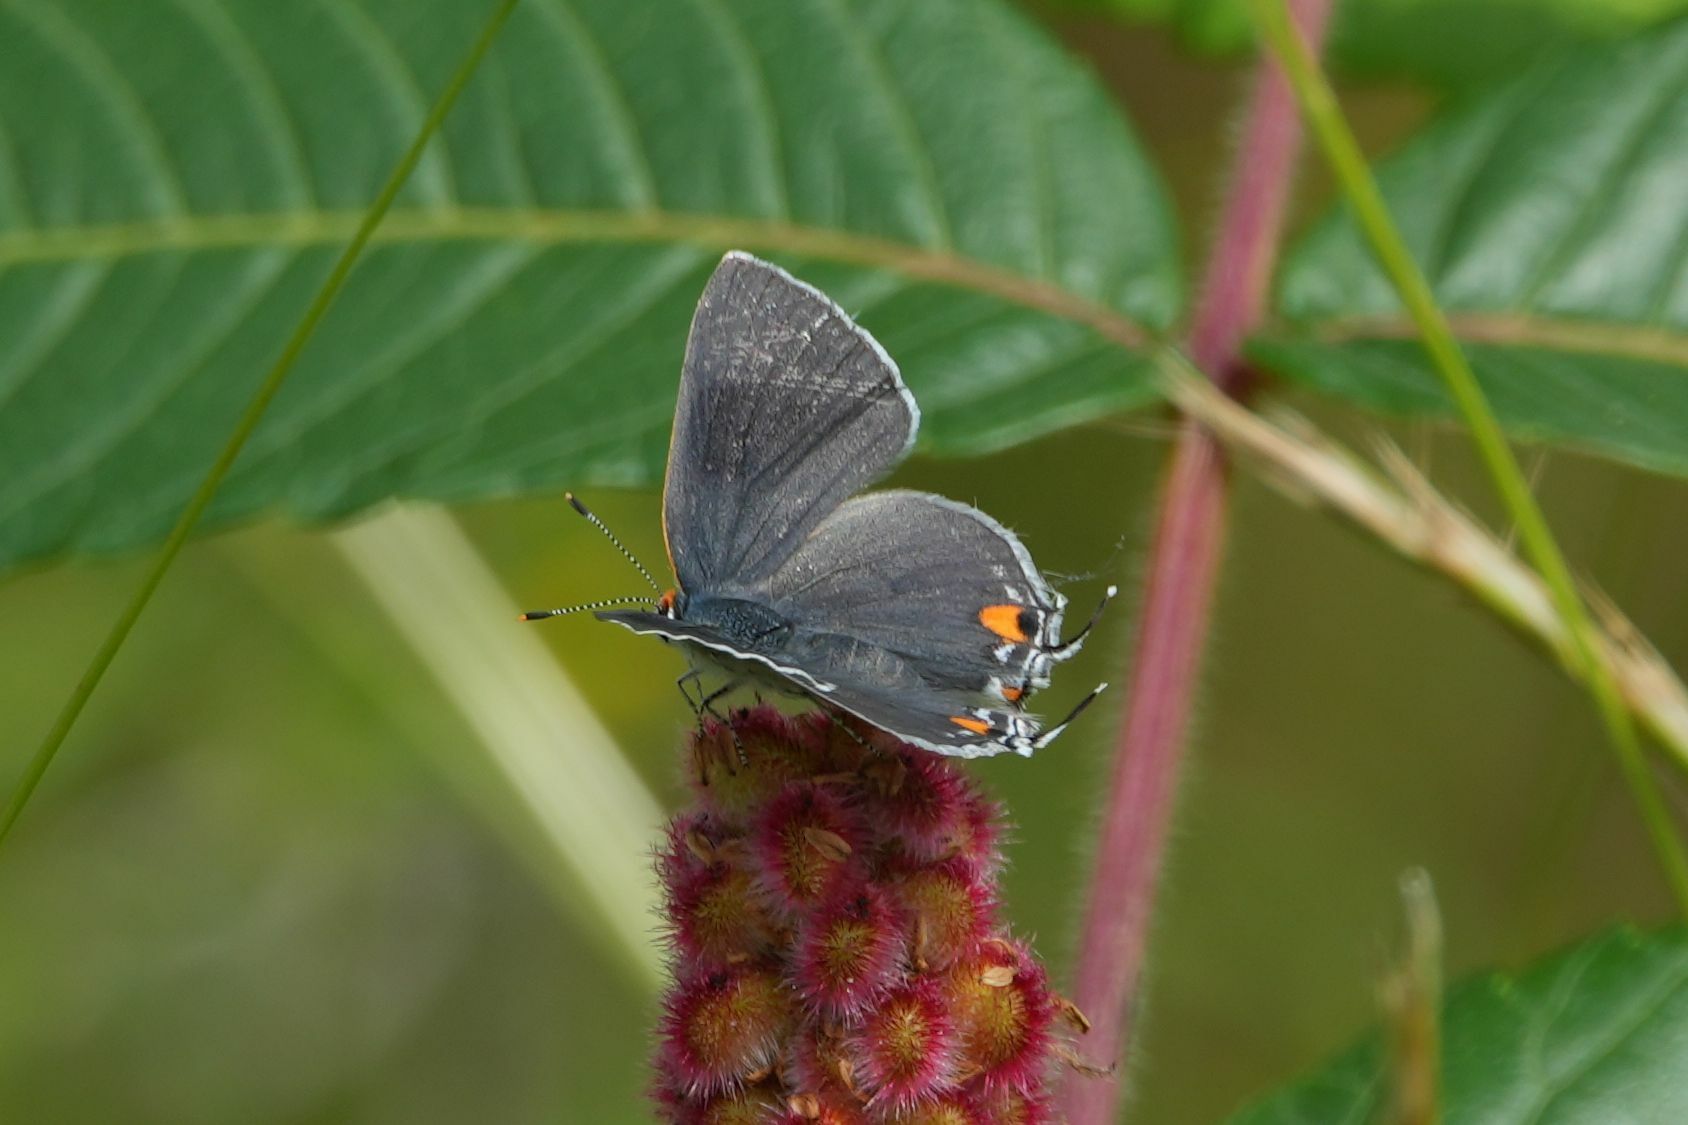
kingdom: Animalia
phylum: Arthropoda
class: Insecta
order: Lepidoptera
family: Lycaenidae
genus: Strymon
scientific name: Strymon melinus
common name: Gray hairstreak
